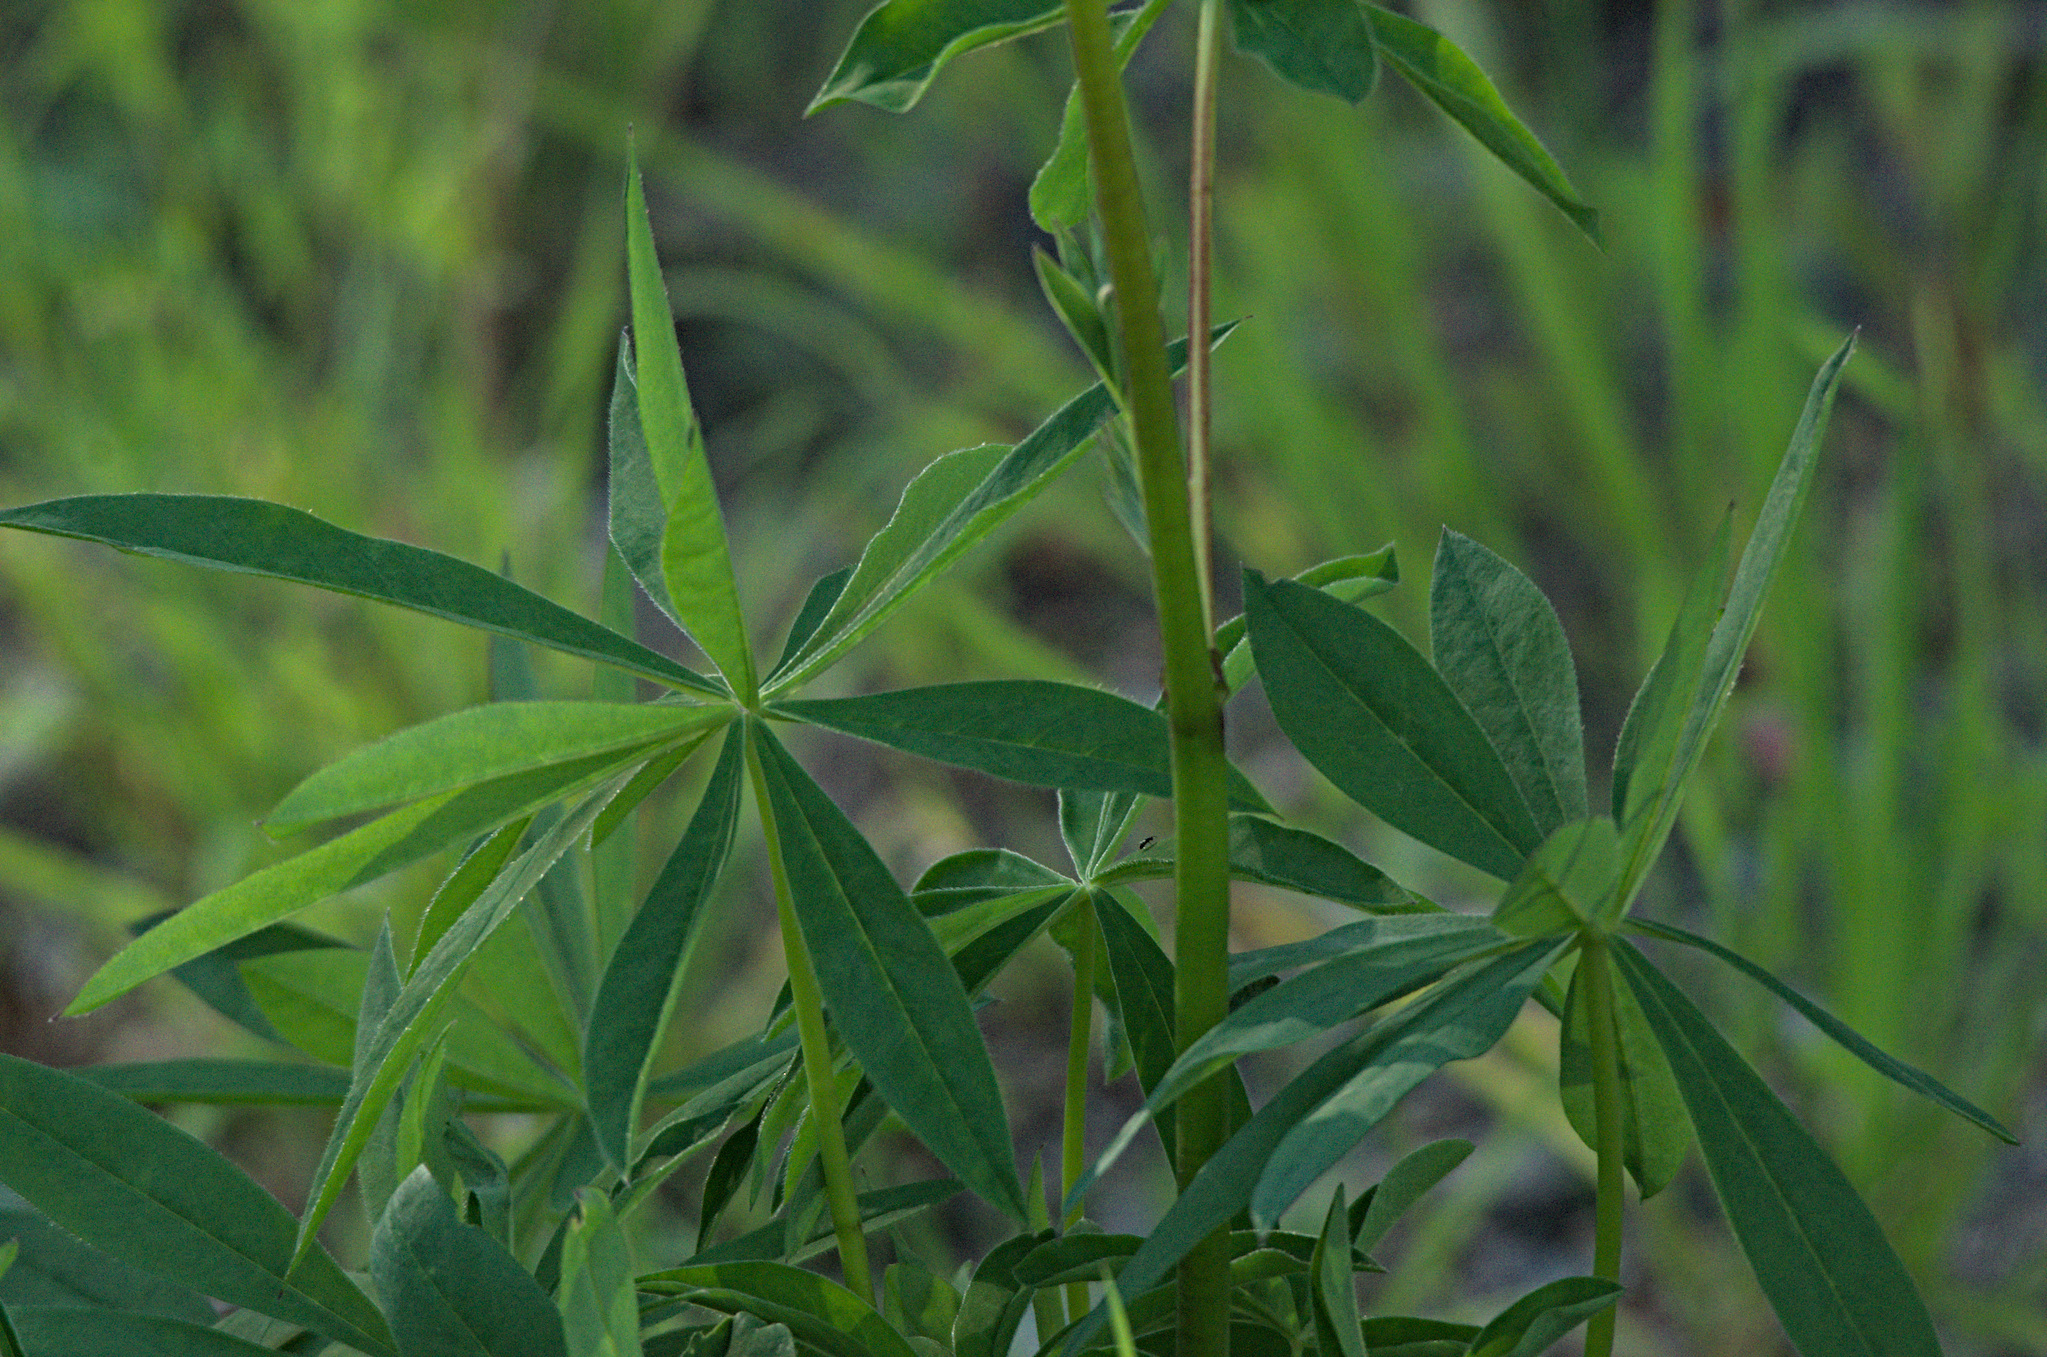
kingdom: Plantae
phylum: Tracheophyta
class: Magnoliopsida
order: Fabales
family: Fabaceae
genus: Lupinus
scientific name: Lupinus polyphyllus
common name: Garden lupin
